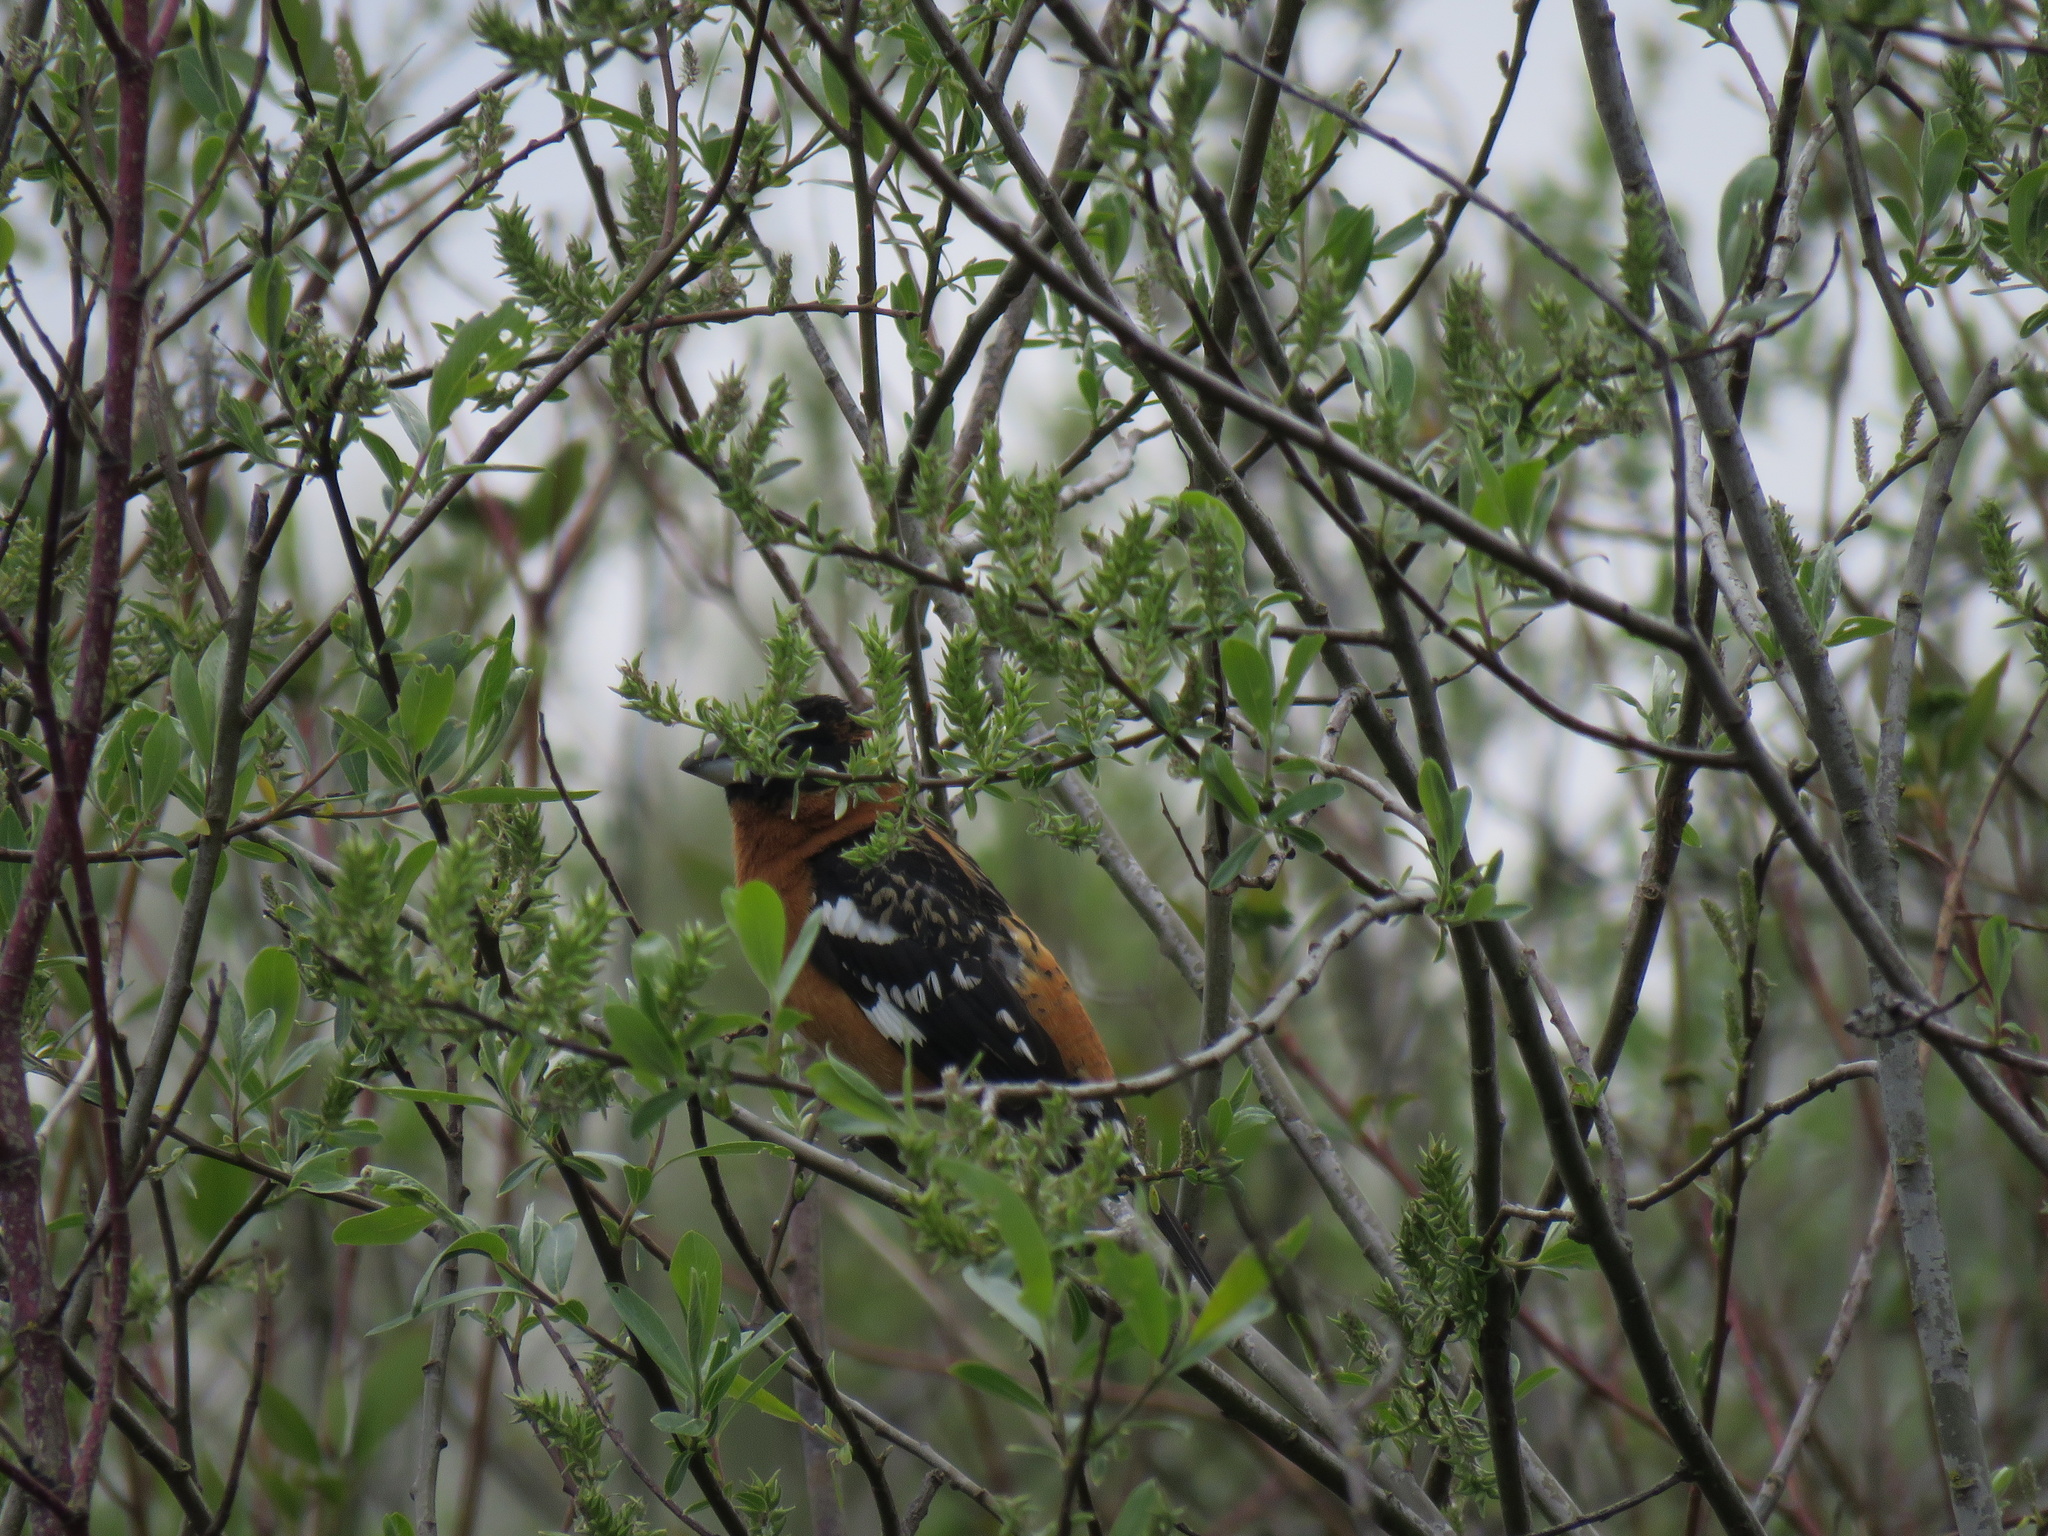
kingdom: Animalia
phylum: Chordata
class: Aves
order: Passeriformes
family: Cardinalidae
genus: Pheucticus
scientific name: Pheucticus melanocephalus
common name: Black-headed grosbeak
